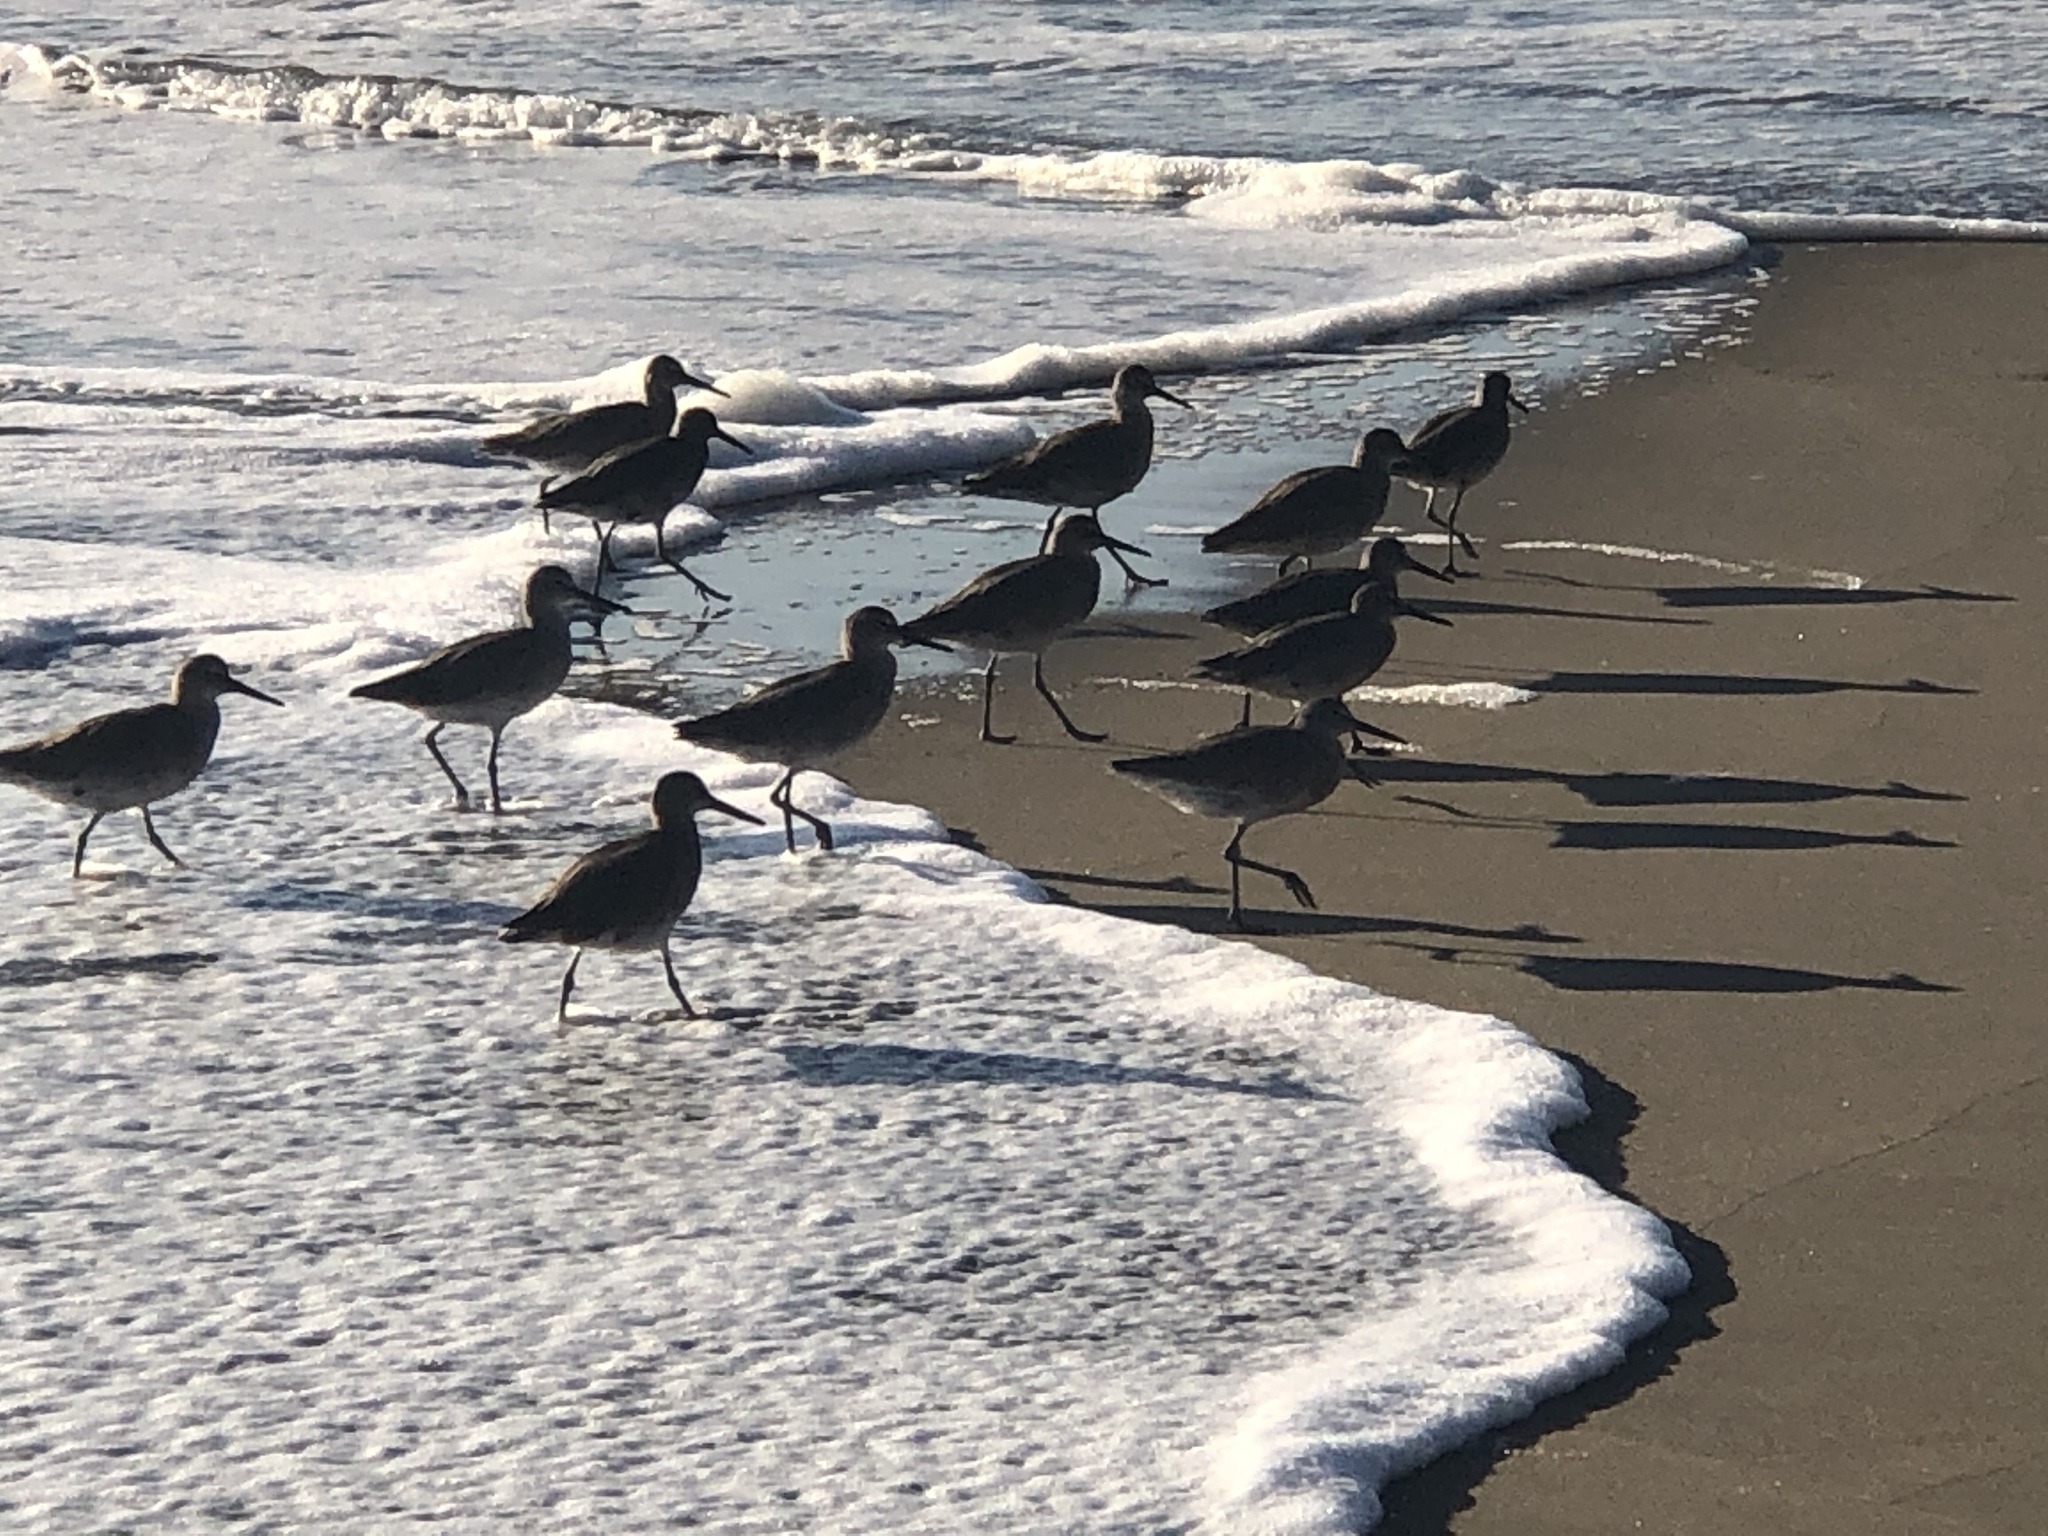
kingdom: Animalia
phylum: Chordata
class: Aves
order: Charadriiformes
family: Scolopacidae
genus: Tringa
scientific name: Tringa semipalmata
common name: Willet
